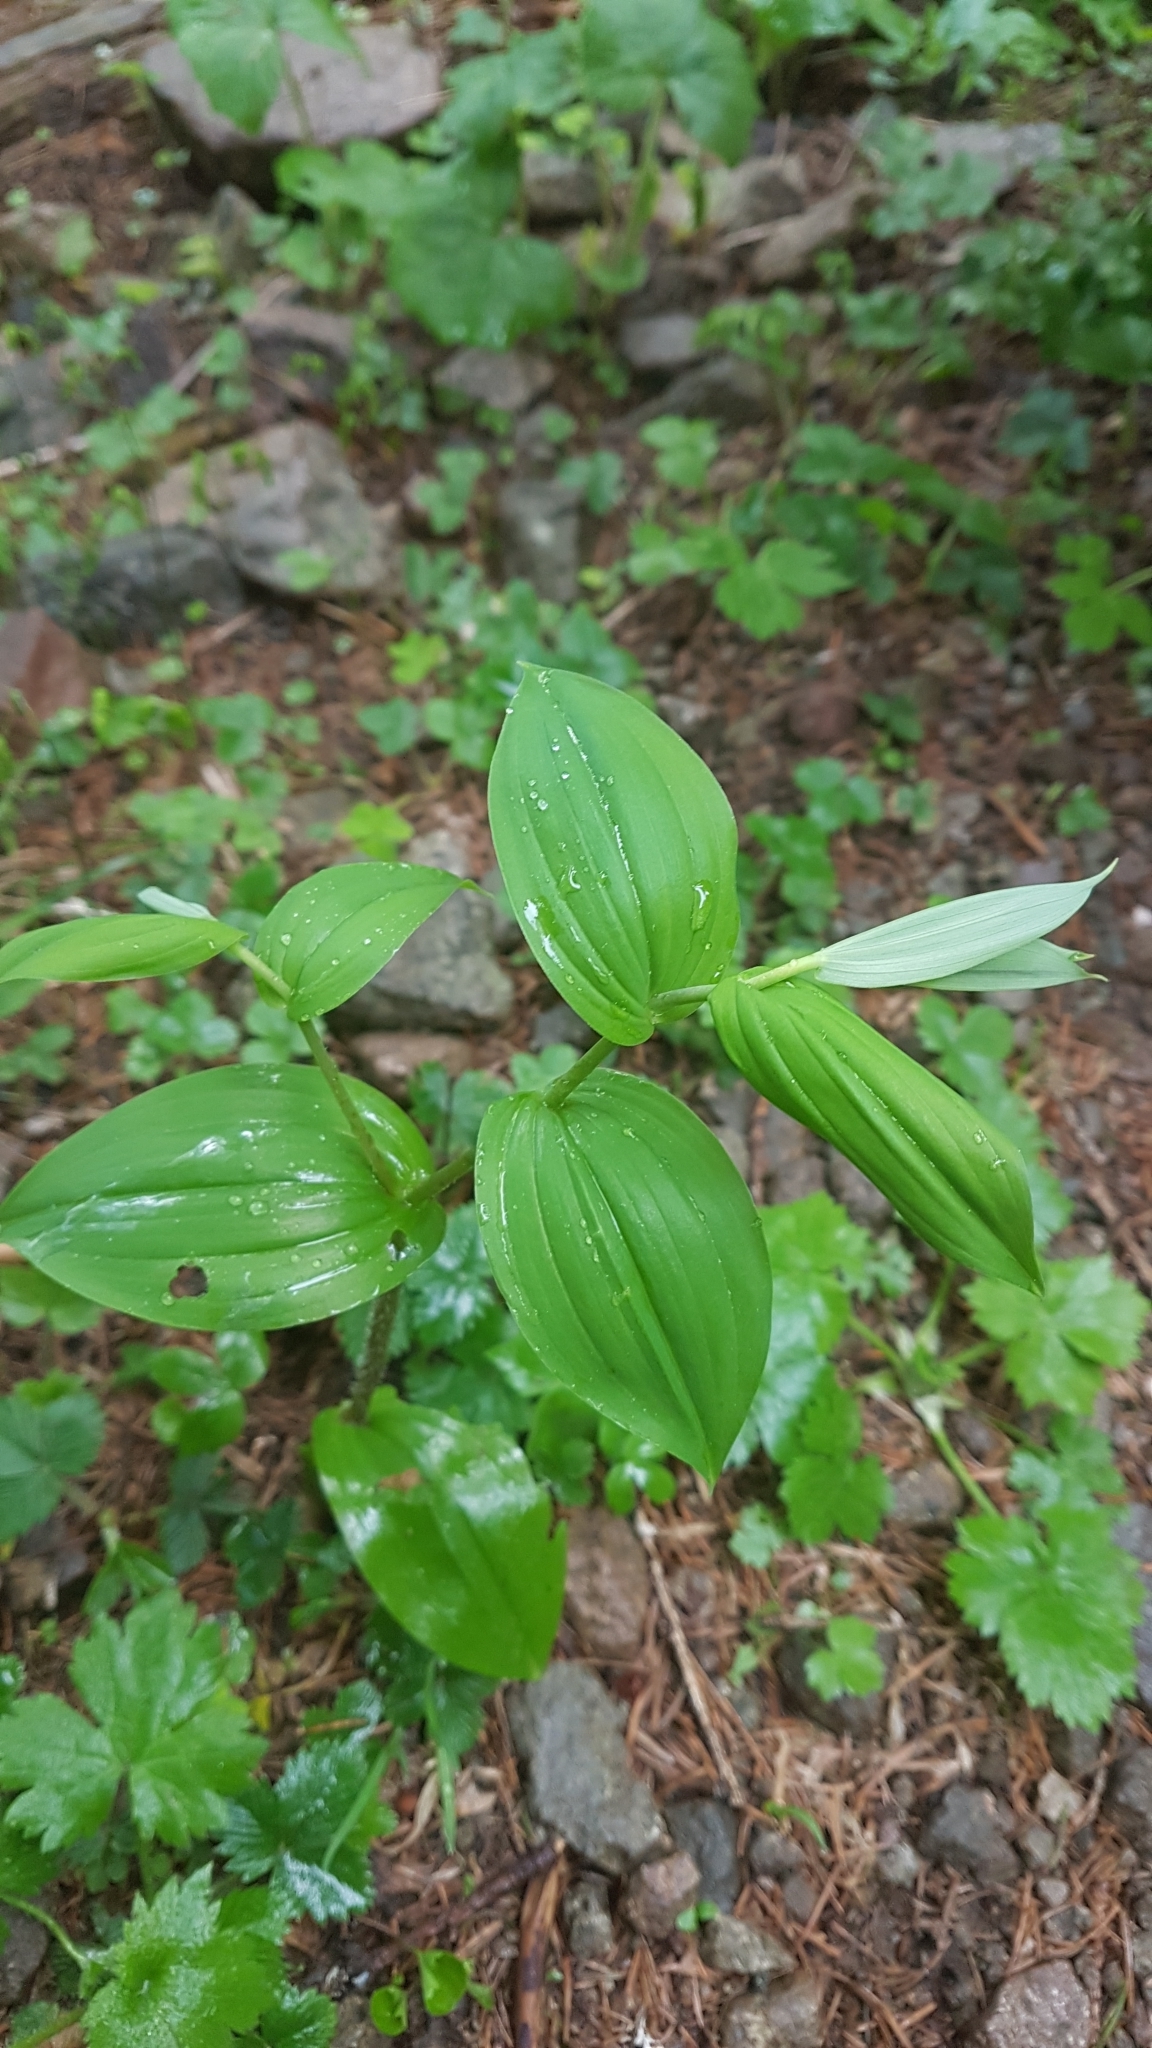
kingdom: Plantae
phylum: Tracheophyta
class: Liliopsida
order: Liliales
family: Liliaceae
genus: Streptopus
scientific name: Streptopus amplexifolius
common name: Clasp twisted stalk
